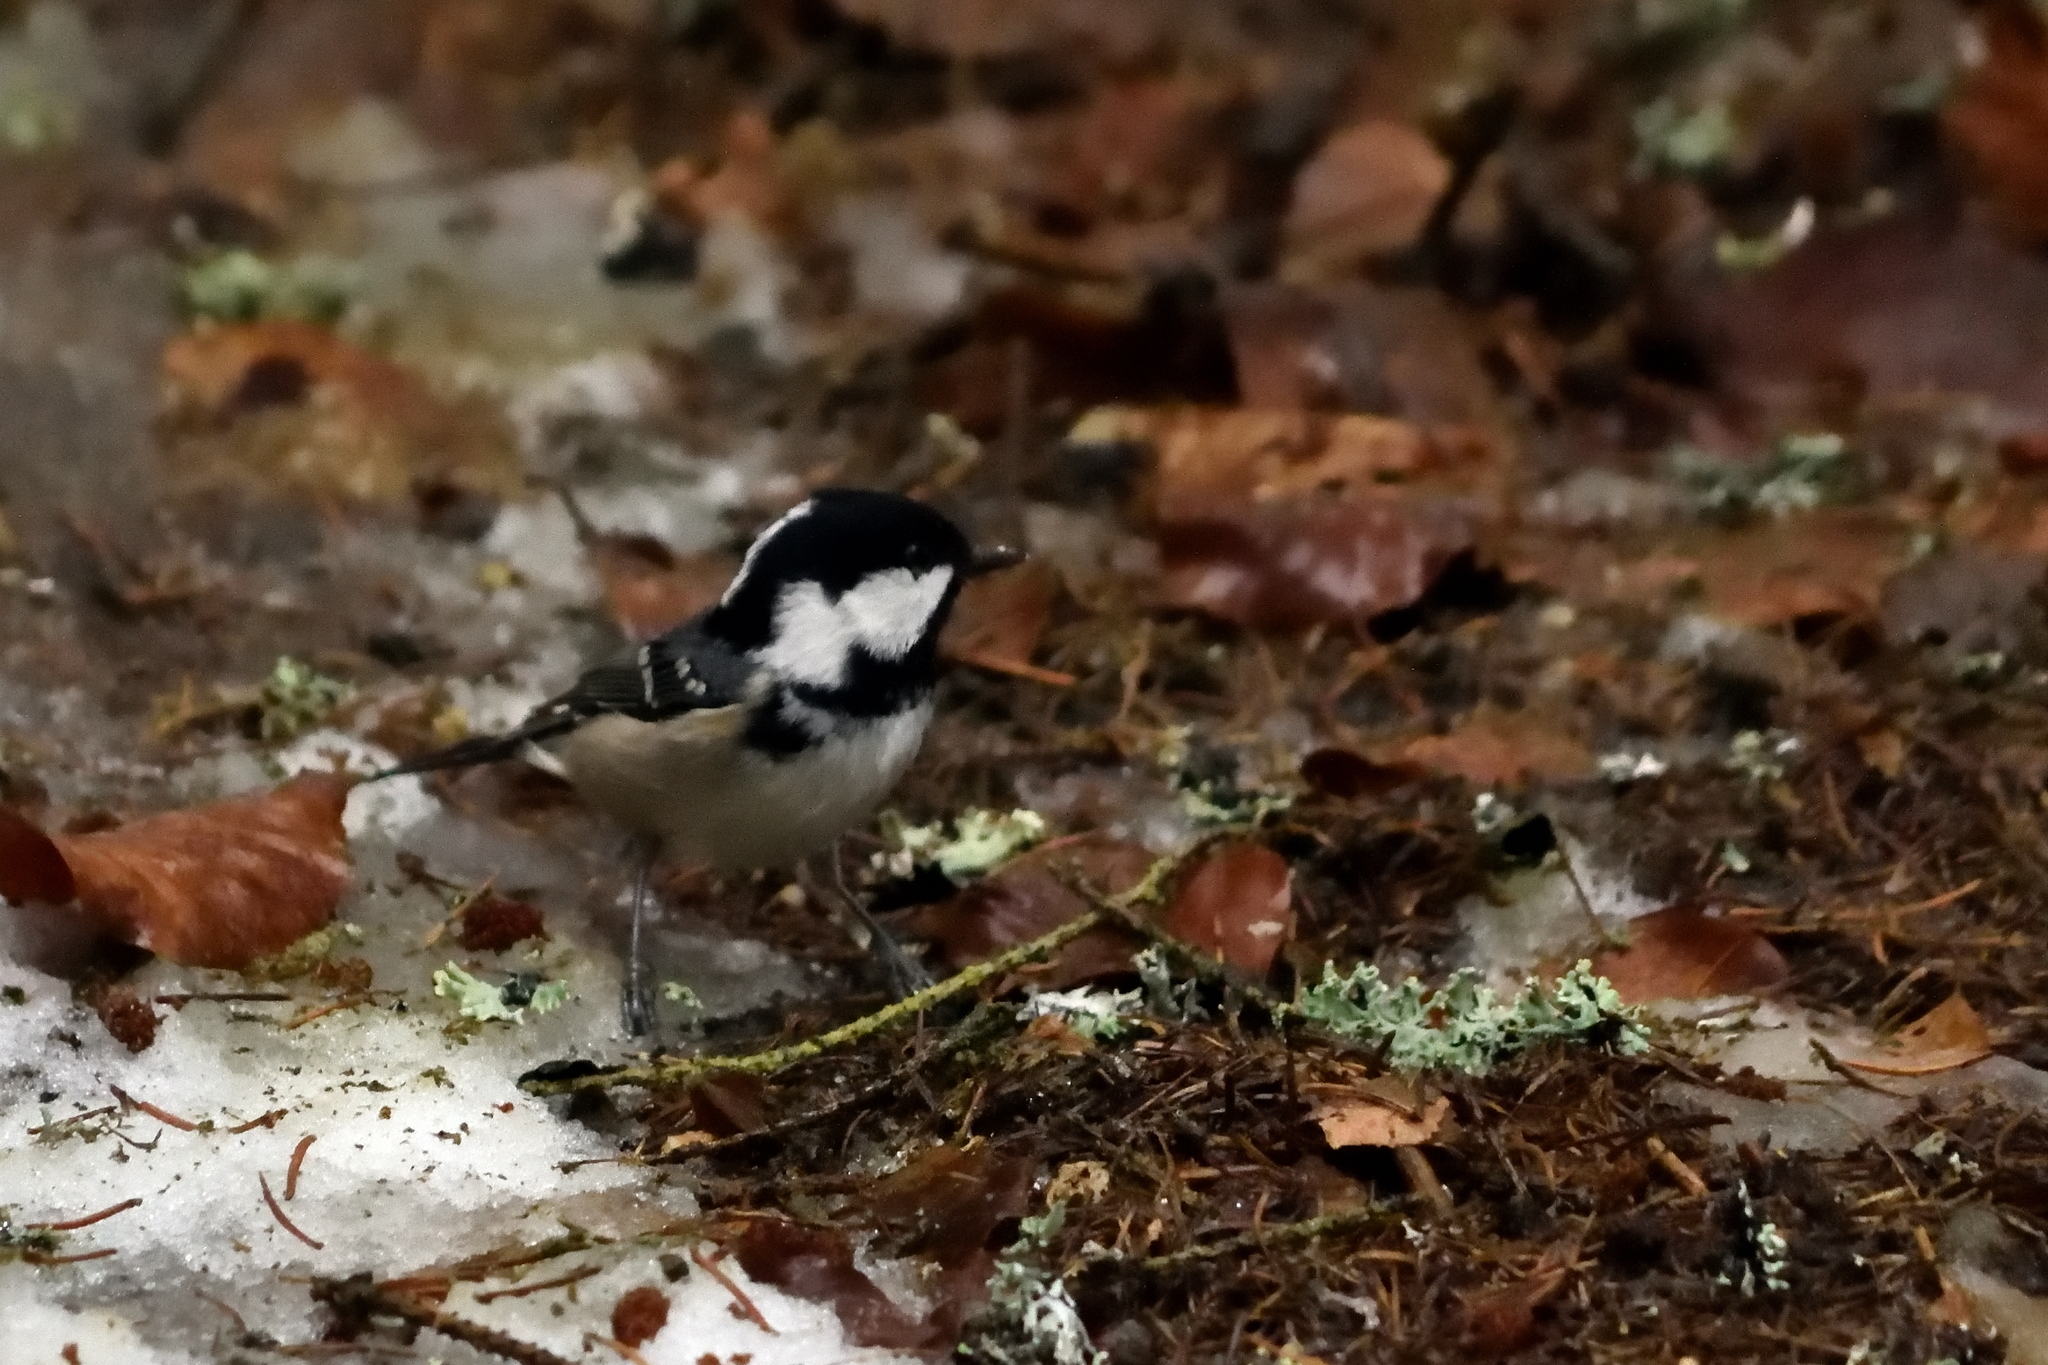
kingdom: Animalia
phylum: Chordata
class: Aves
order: Passeriformes
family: Paridae
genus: Periparus
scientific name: Periparus ater
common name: Coal tit
